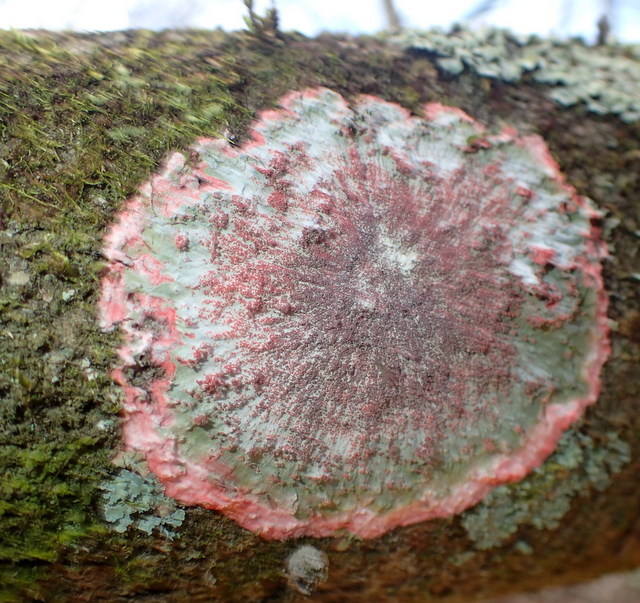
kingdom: Fungi
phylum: Ascomycota
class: Arthoniomycetes
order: Arthoniales
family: Arthoniaceae
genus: Herpothallon
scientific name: Herpothallon rubrocinctum
